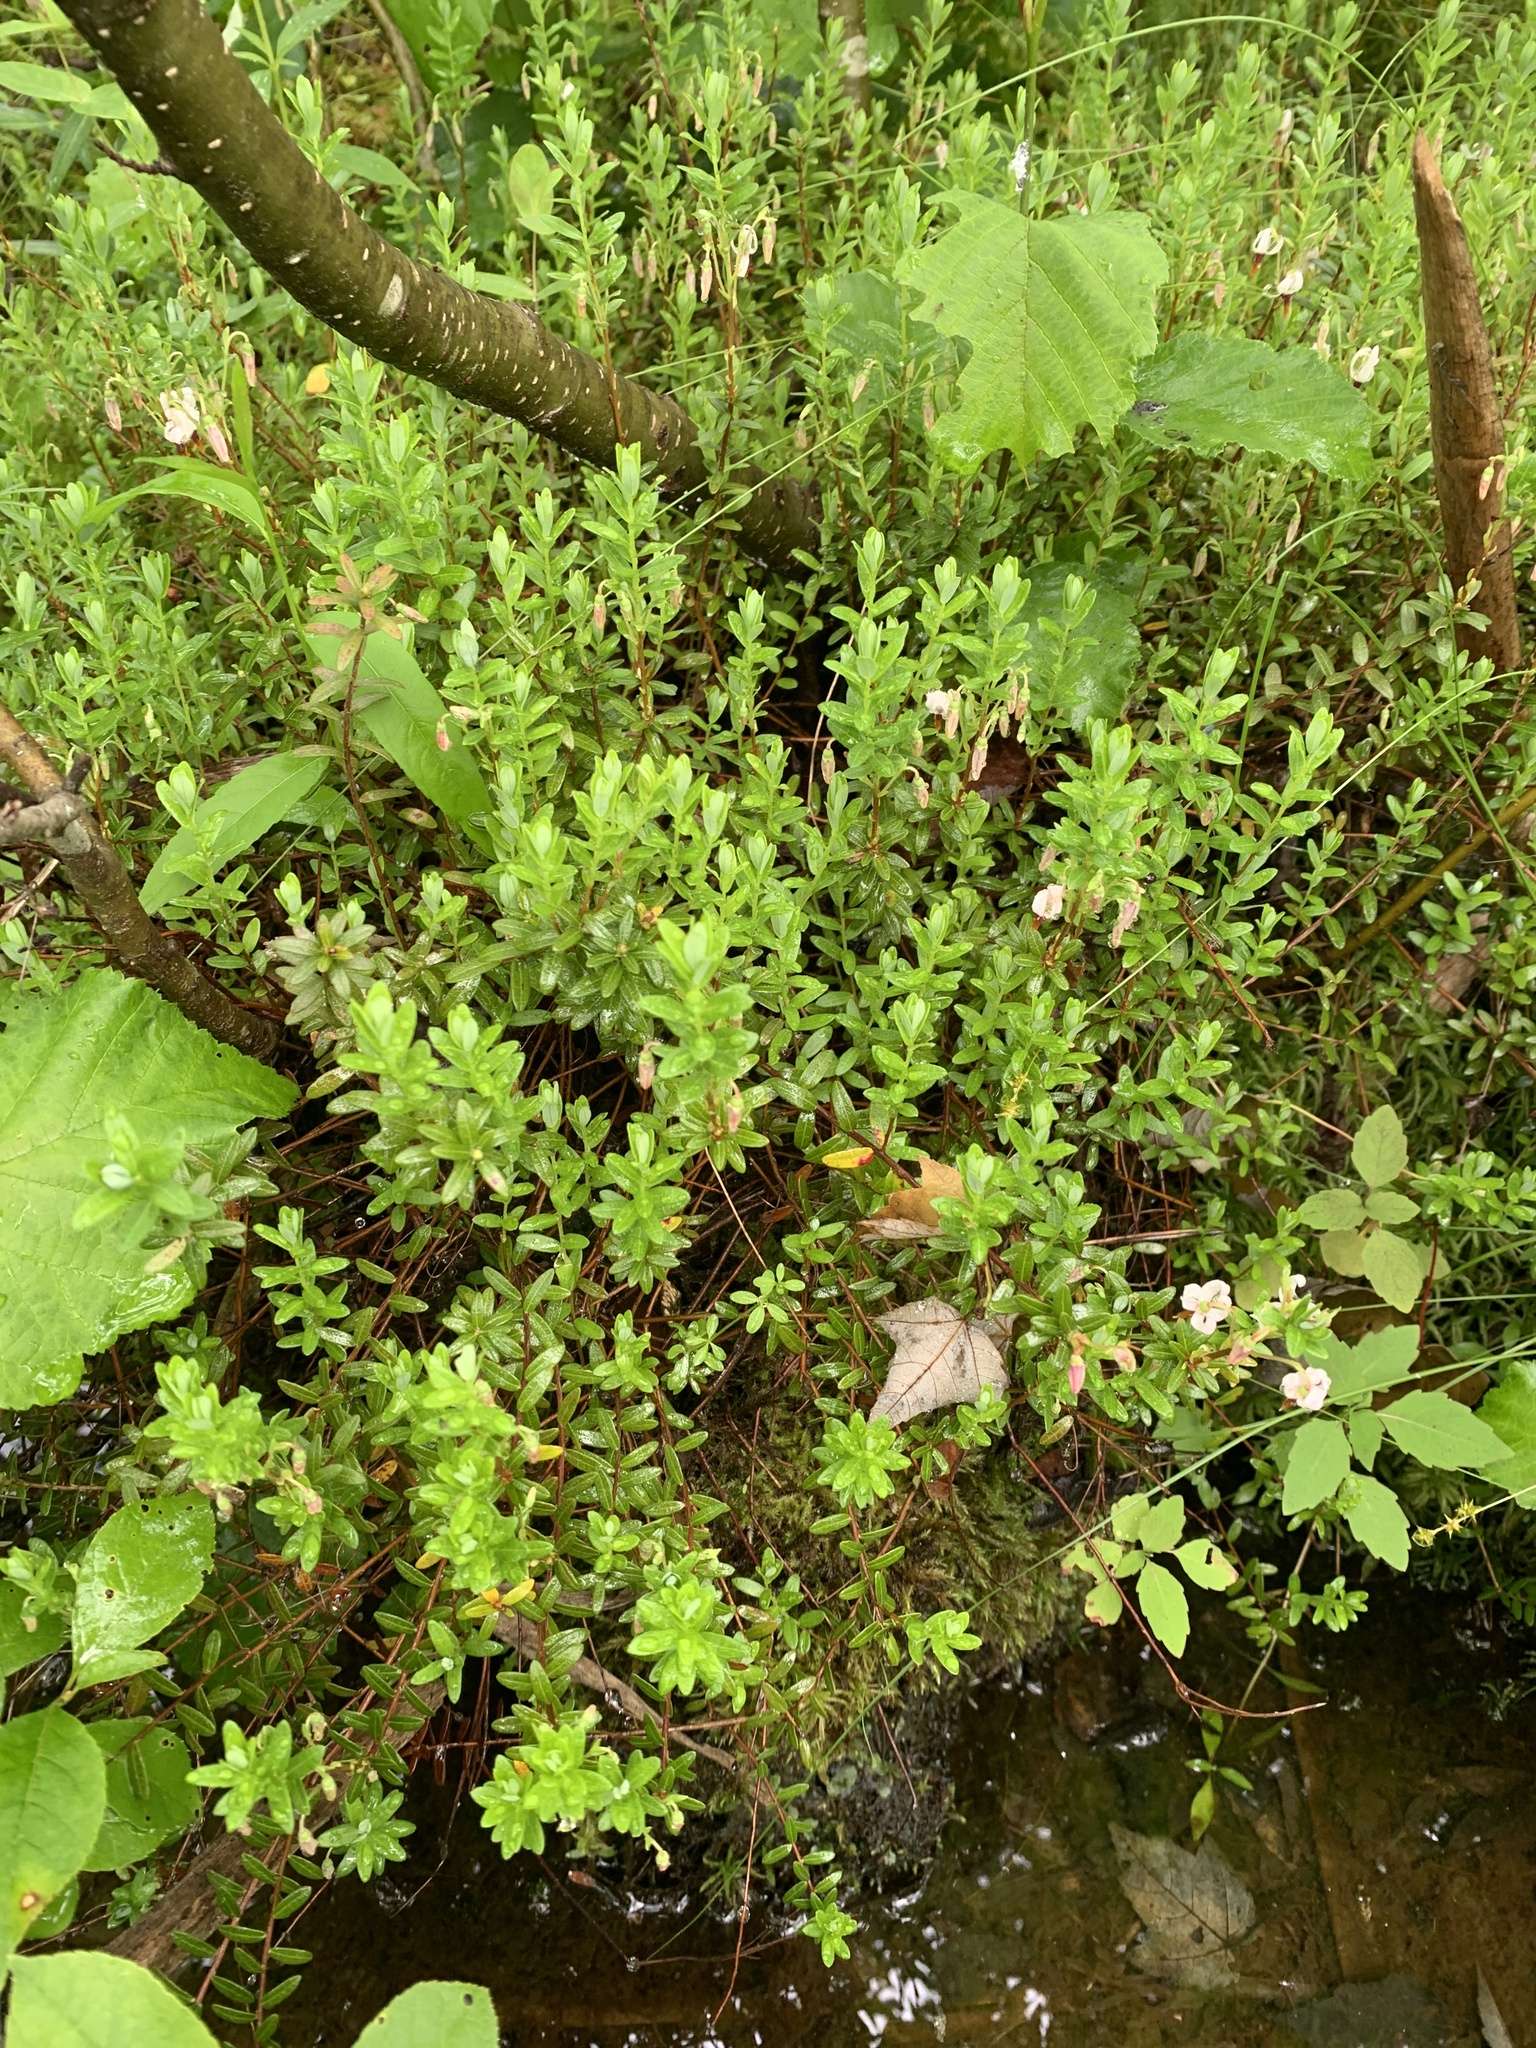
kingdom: Plantae
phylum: Tracheophyta
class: Magnoliopsida
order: Ericales
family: Ericaceae
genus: Vaccinium
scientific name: Vaccinium macrocarpon
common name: American cranberry
